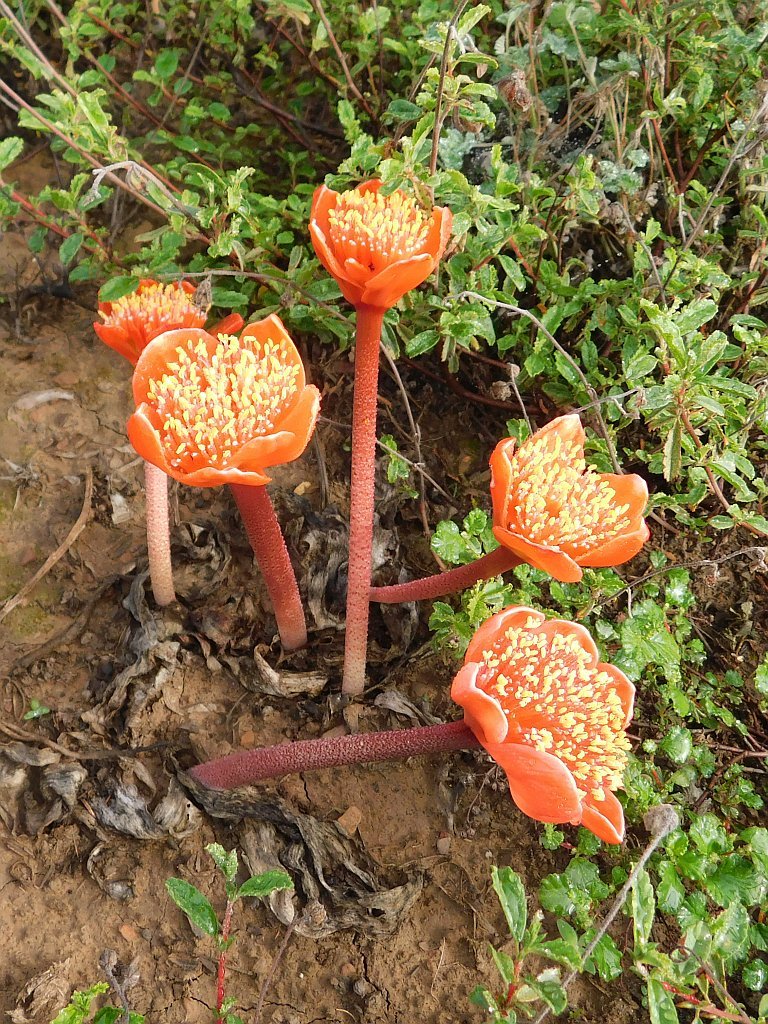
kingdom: Plantae
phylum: Tracheophyta
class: Liliopsida
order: Asparagales
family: Amaryllidaceae
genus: Haemanthus
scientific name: Haemanthus coccineus
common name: Cape-tulip
